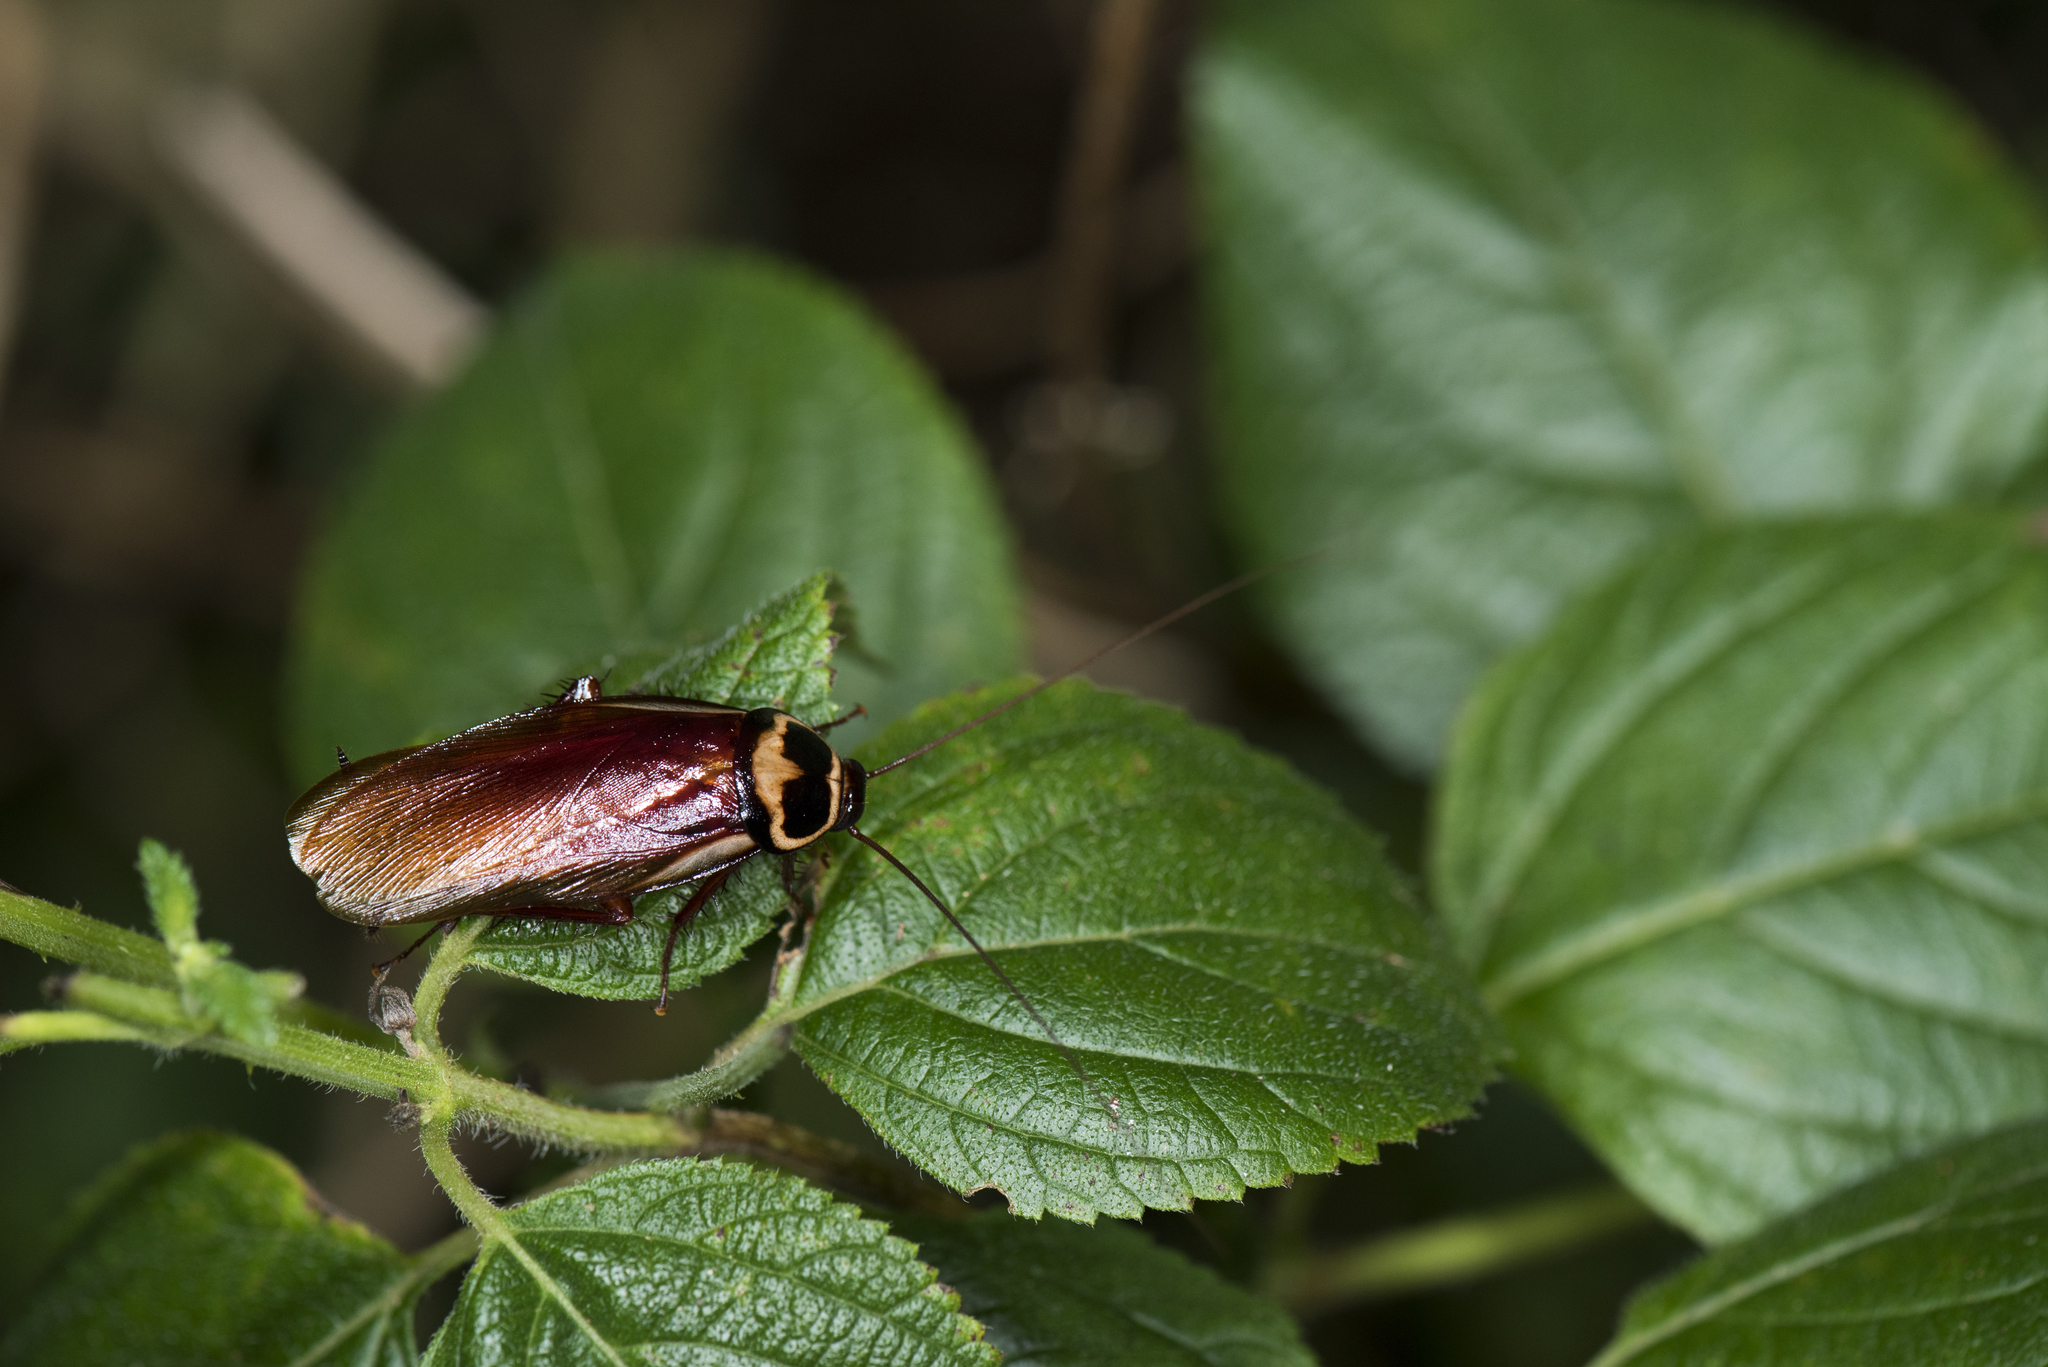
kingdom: Animalia
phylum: Arthropoda
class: Insecta
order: Blattodea
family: Blattidae
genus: Periplaneta
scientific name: Periplaneta australasiae
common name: Australian cockroach
